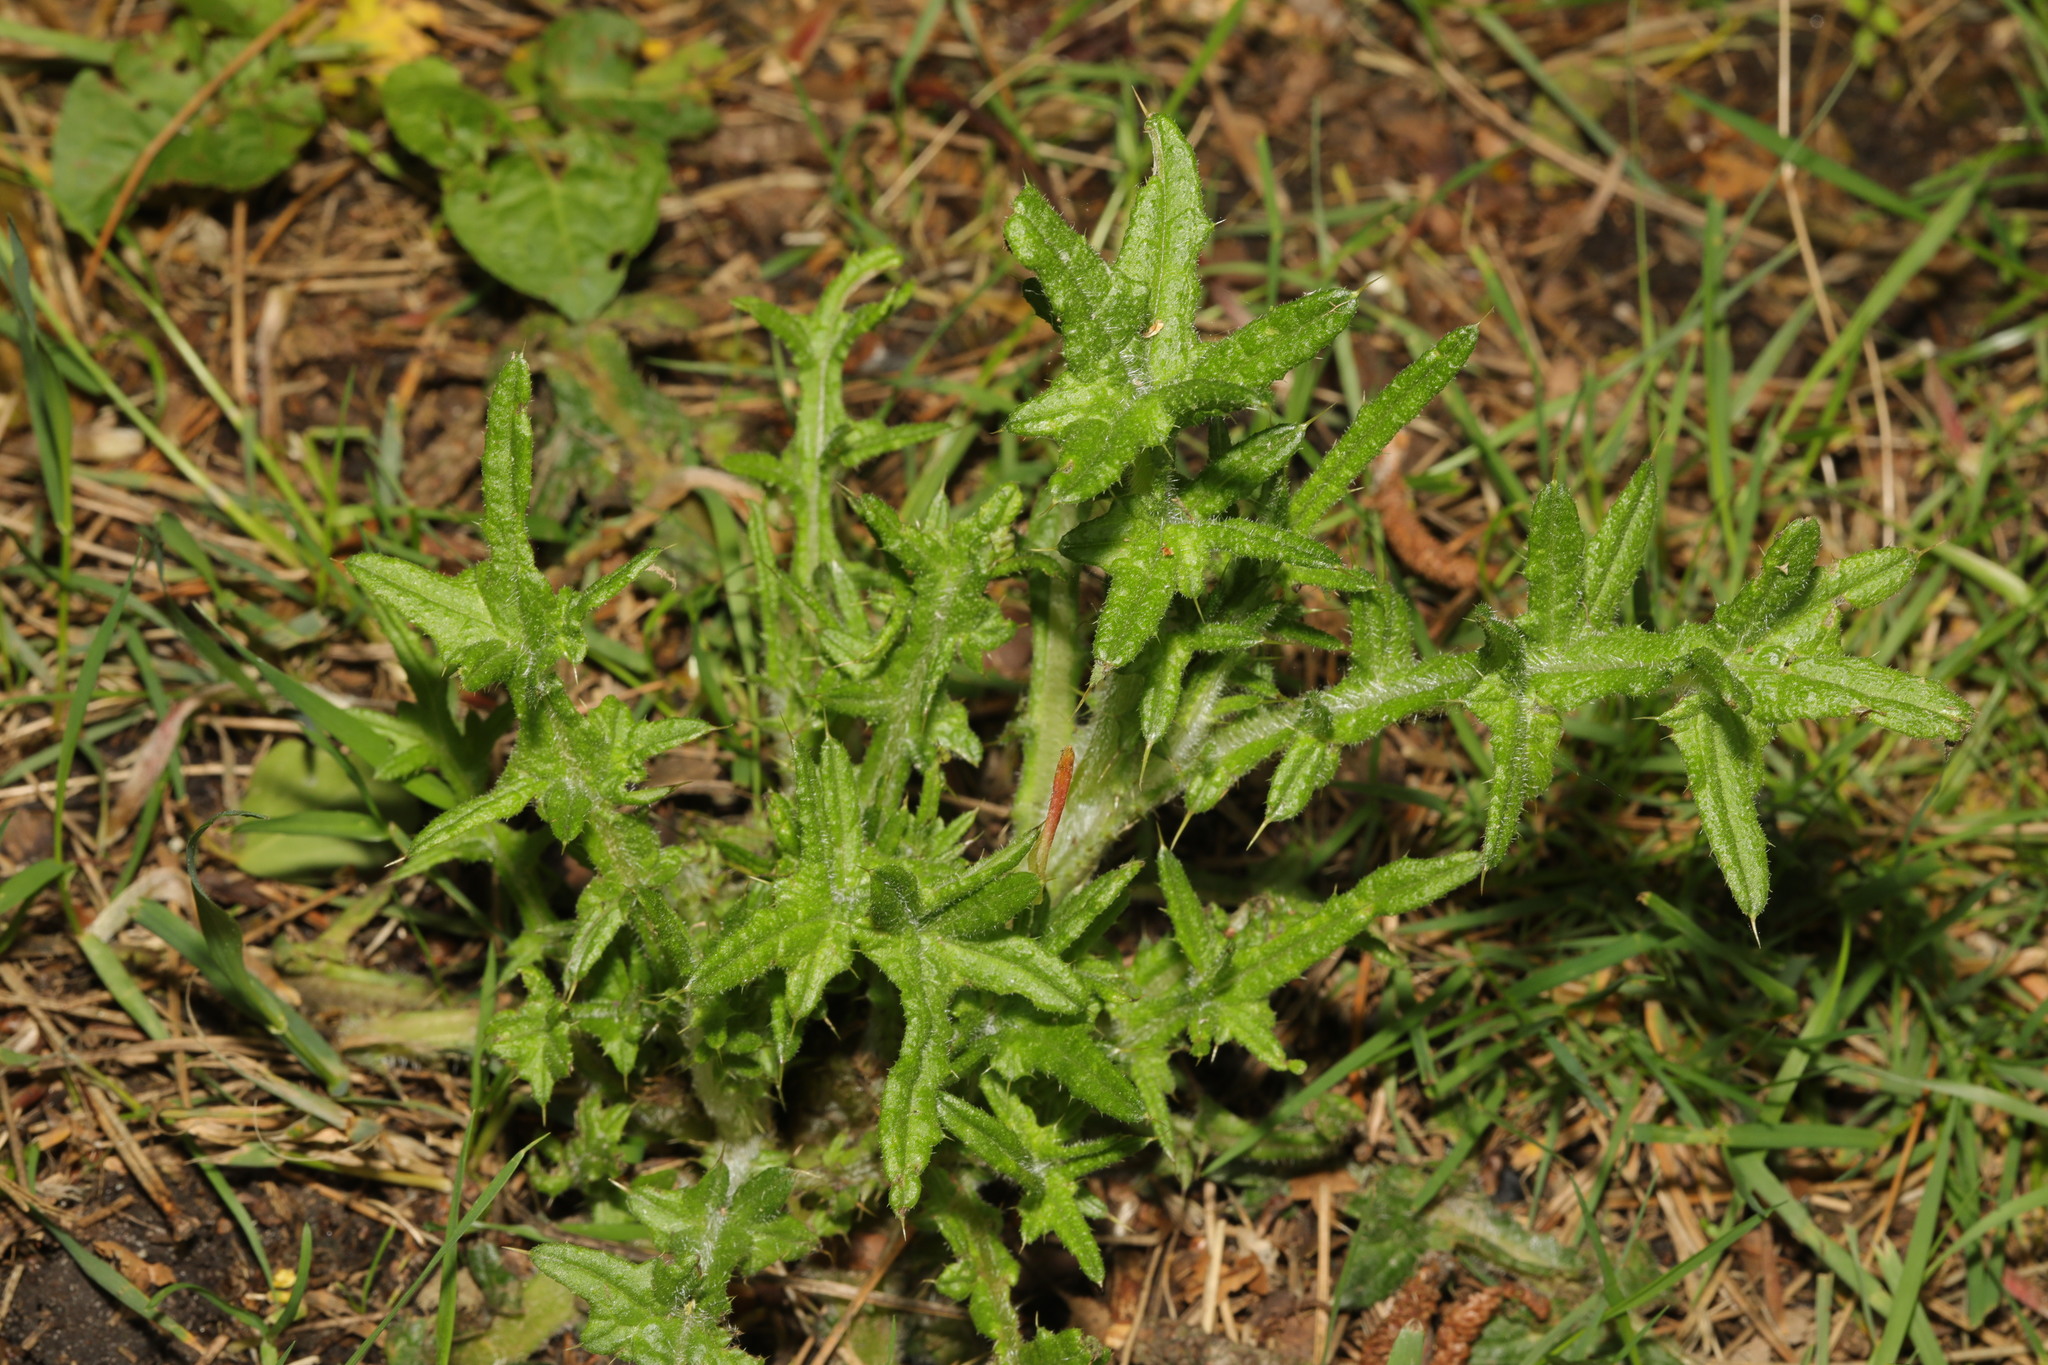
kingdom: Plantae
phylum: Tracheophyta
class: Magnoliopsida
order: Asterales
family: Asteraceae
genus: Cirsium
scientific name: Cirsium vulgare
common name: Bull thistle
